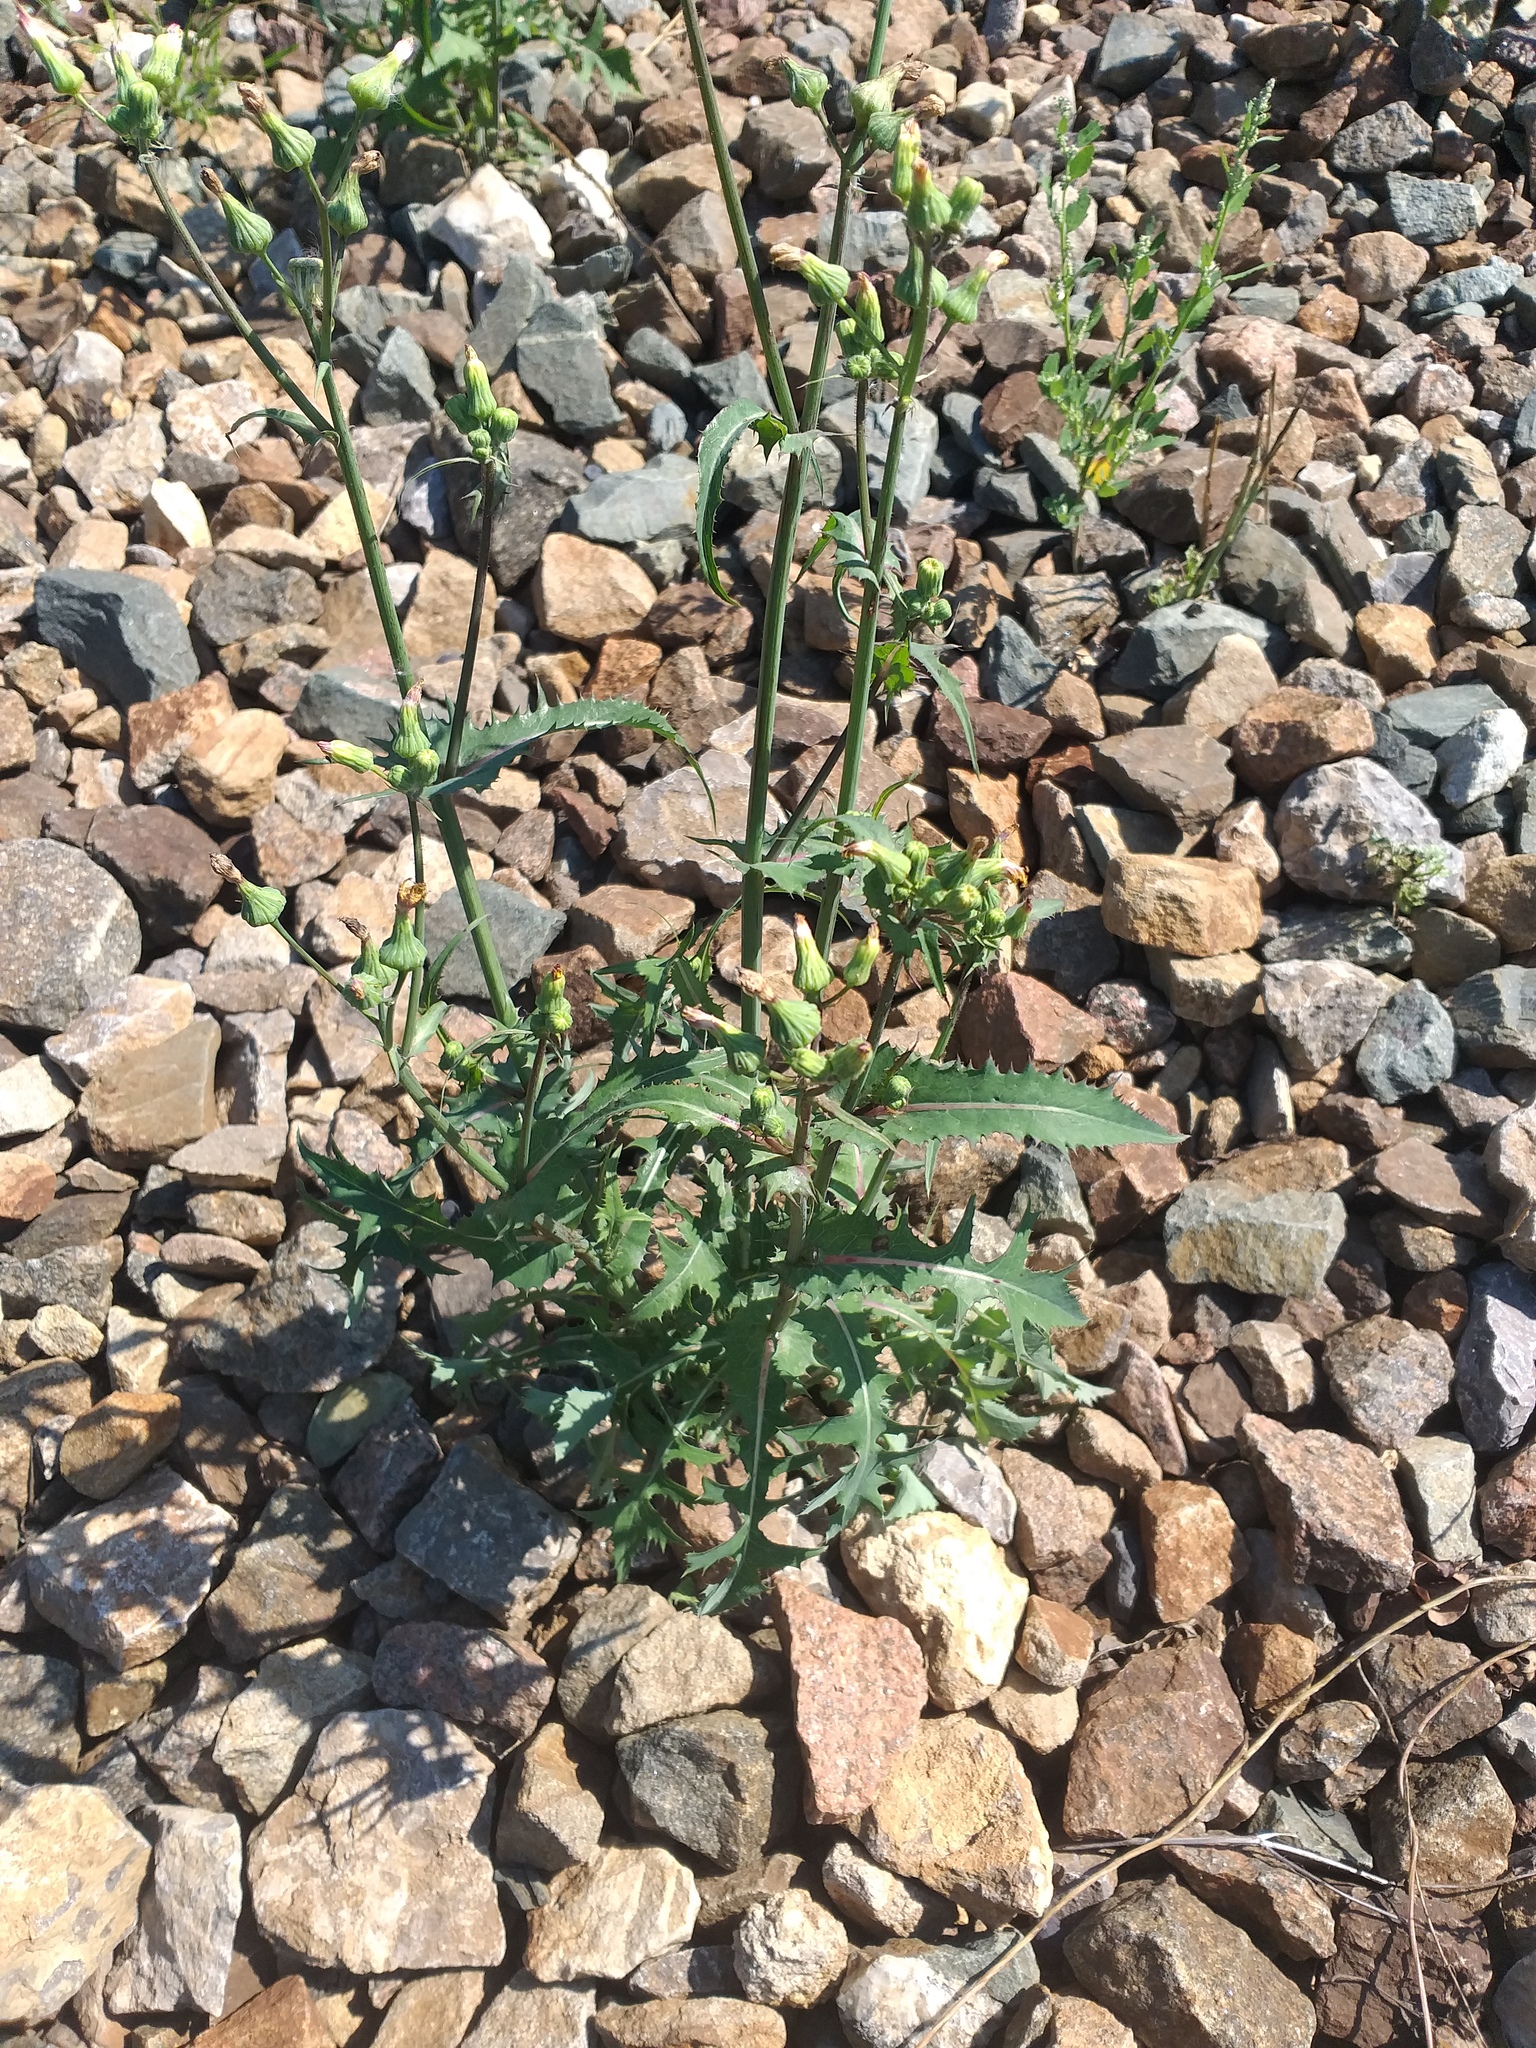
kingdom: Plantae
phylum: Tracheophyta
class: Magnoliopsida
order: Asterales
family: Asteraceae
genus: Sonchus
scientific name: Sonchus oleraceus
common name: Common sowthistle
